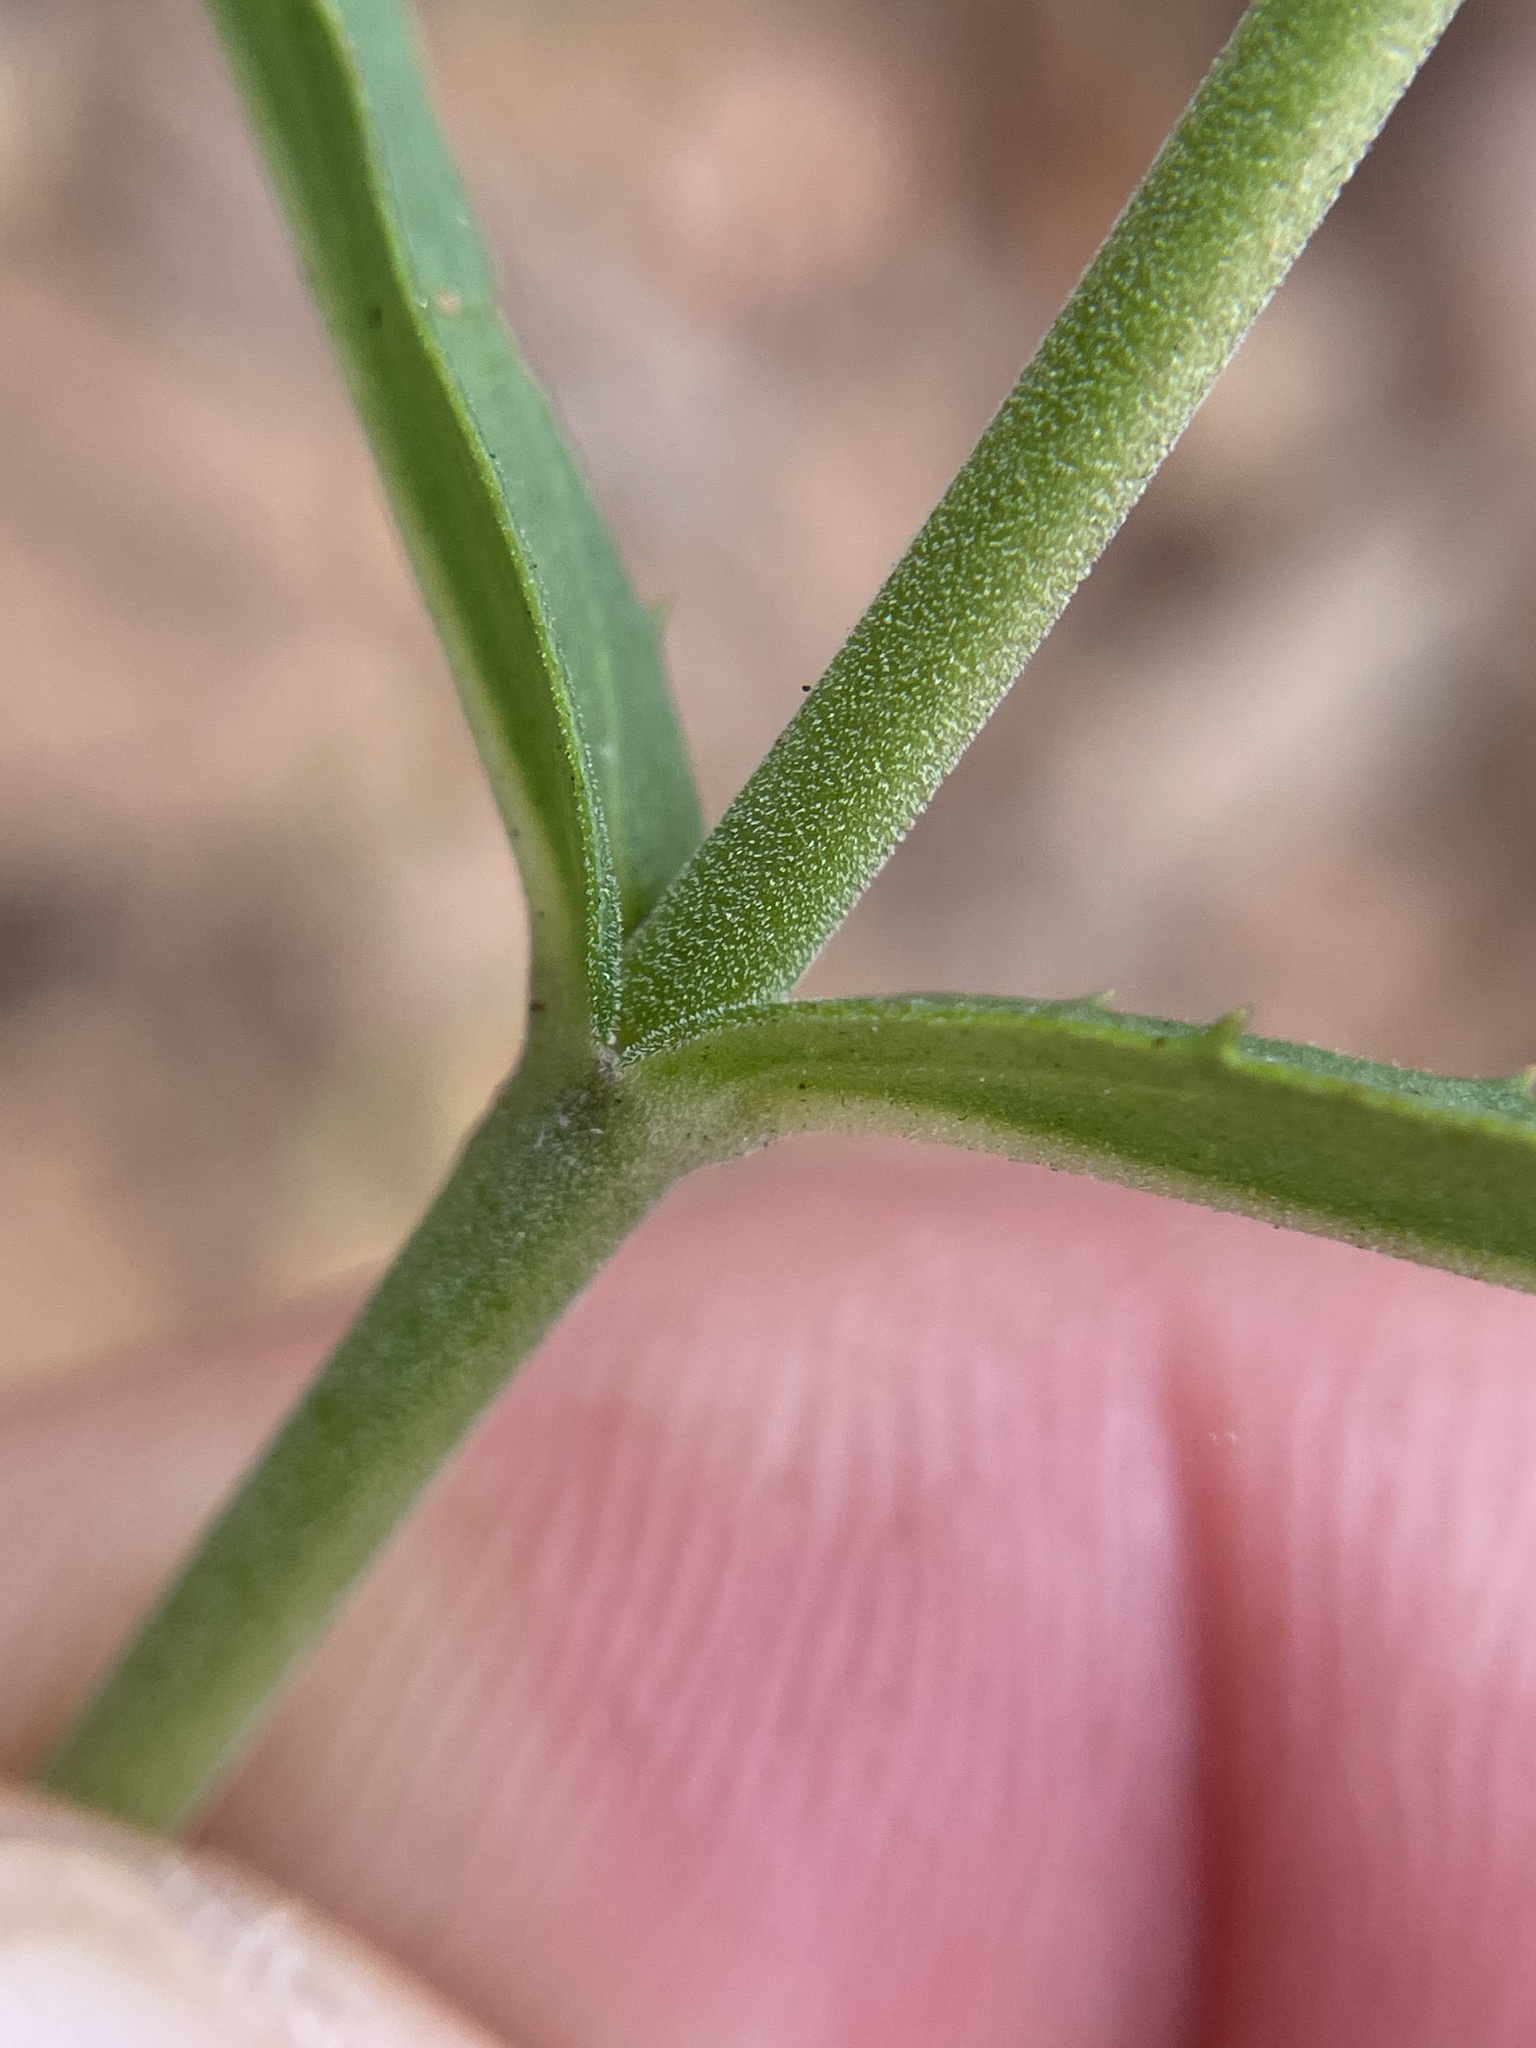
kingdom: Plantae
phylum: Tracheophyta
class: Magnoliopsida
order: Lamiales
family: Plantaginaceae
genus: Penstemon
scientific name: Penstemon laxiflorus
